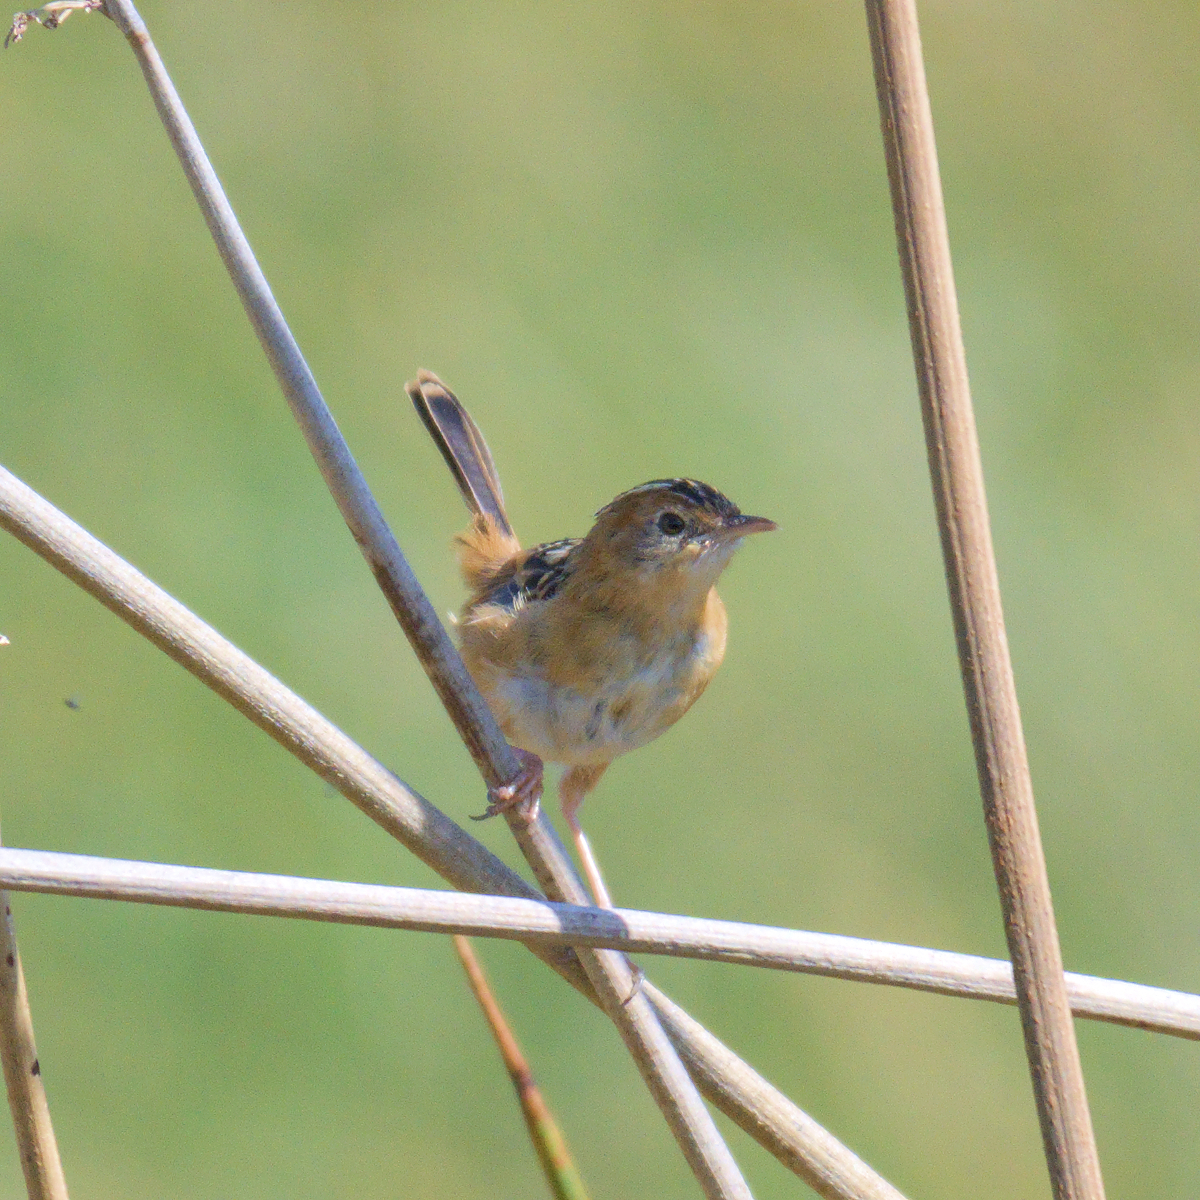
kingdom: Animalia
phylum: Chordata
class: Aves
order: Passeriformes
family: Cisticolidae
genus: Cisticola
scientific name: Cisticola exilis
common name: Golden-headed cisticola
